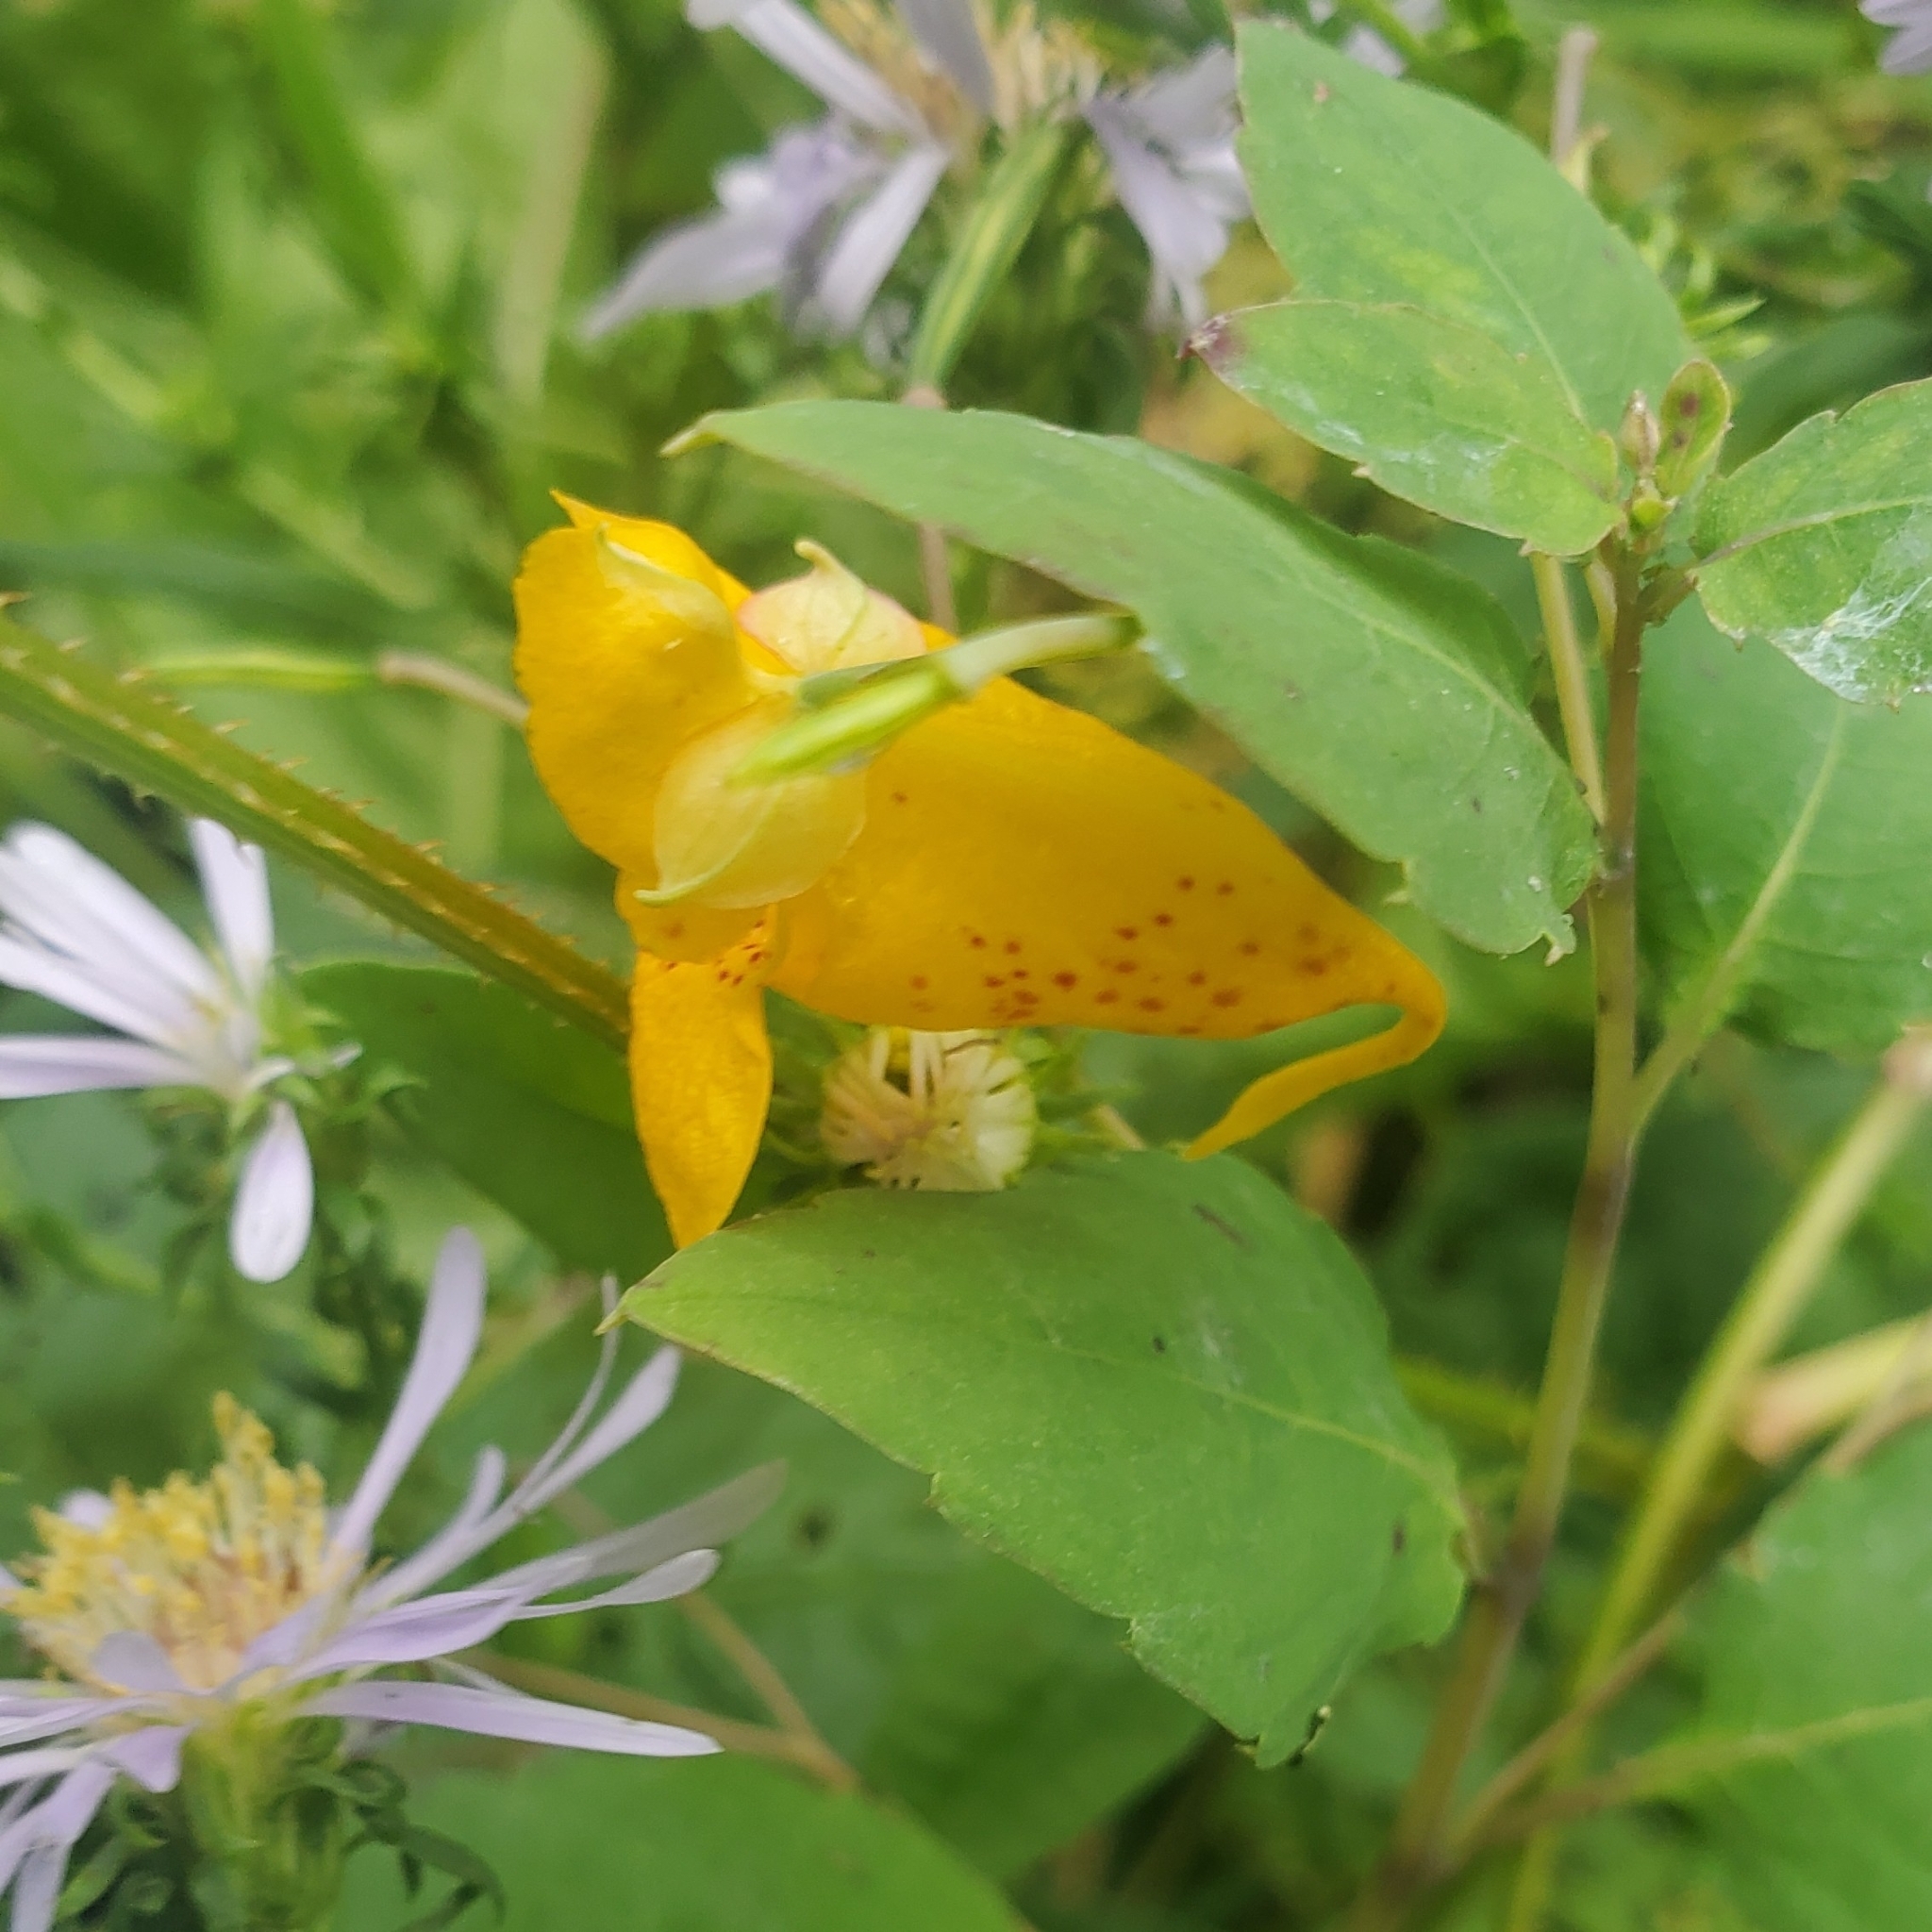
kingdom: Plantae
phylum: Tracheophyta
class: Magnoliopsida
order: Ericales
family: Balsaminaceae
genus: Impatiens
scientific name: Impatiens capensis
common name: Orange balsam
